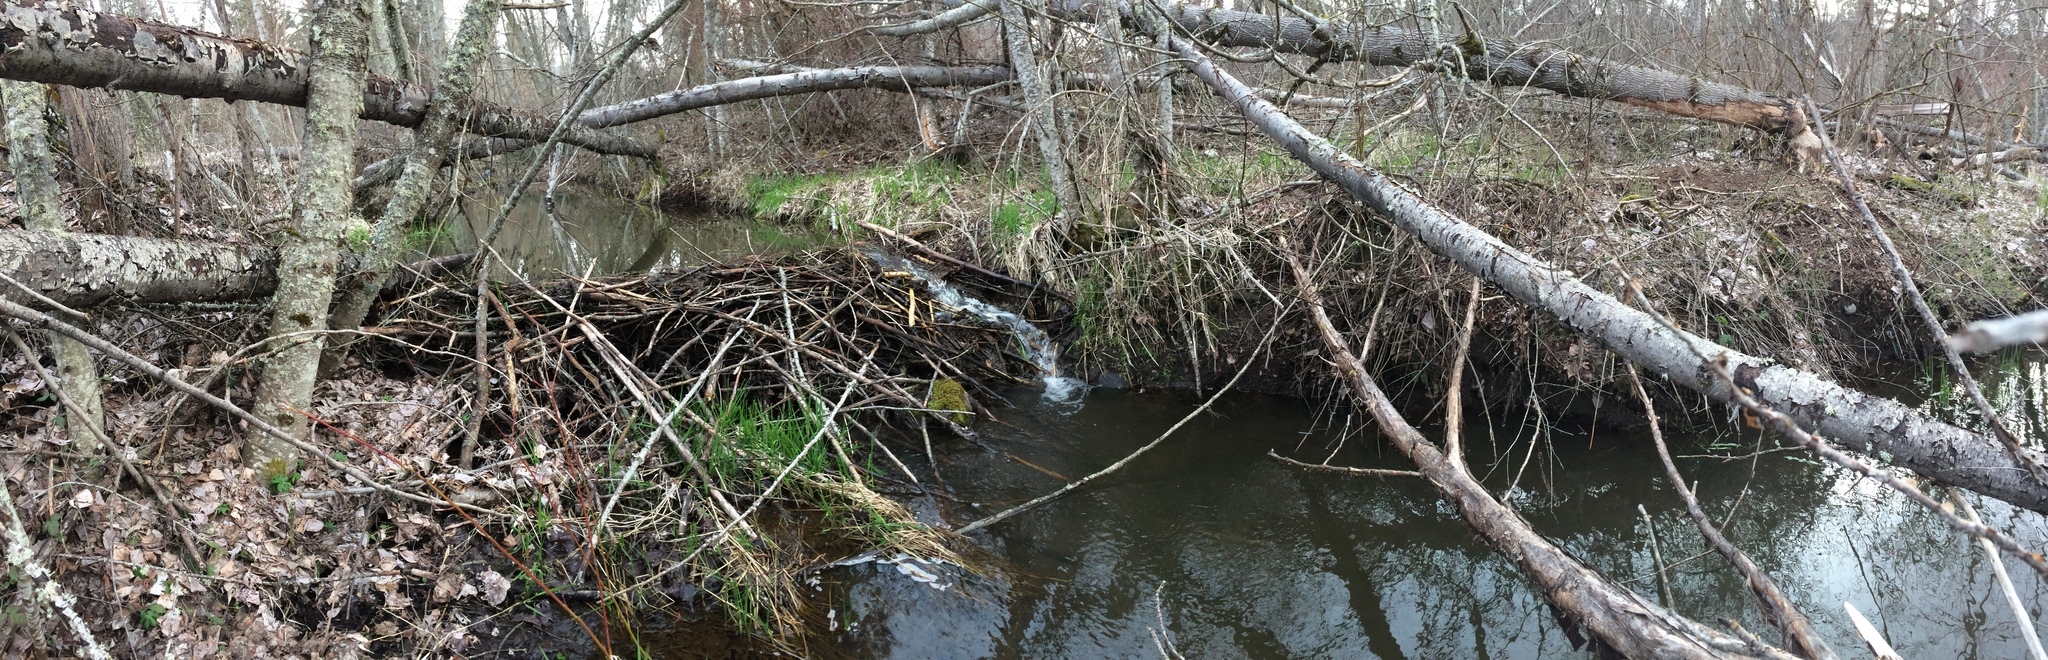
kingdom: Animalia
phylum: Chordata
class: Mammalia
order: Rodentia
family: Castoridae
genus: Castor
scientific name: Castor canadensis
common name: American beaver
